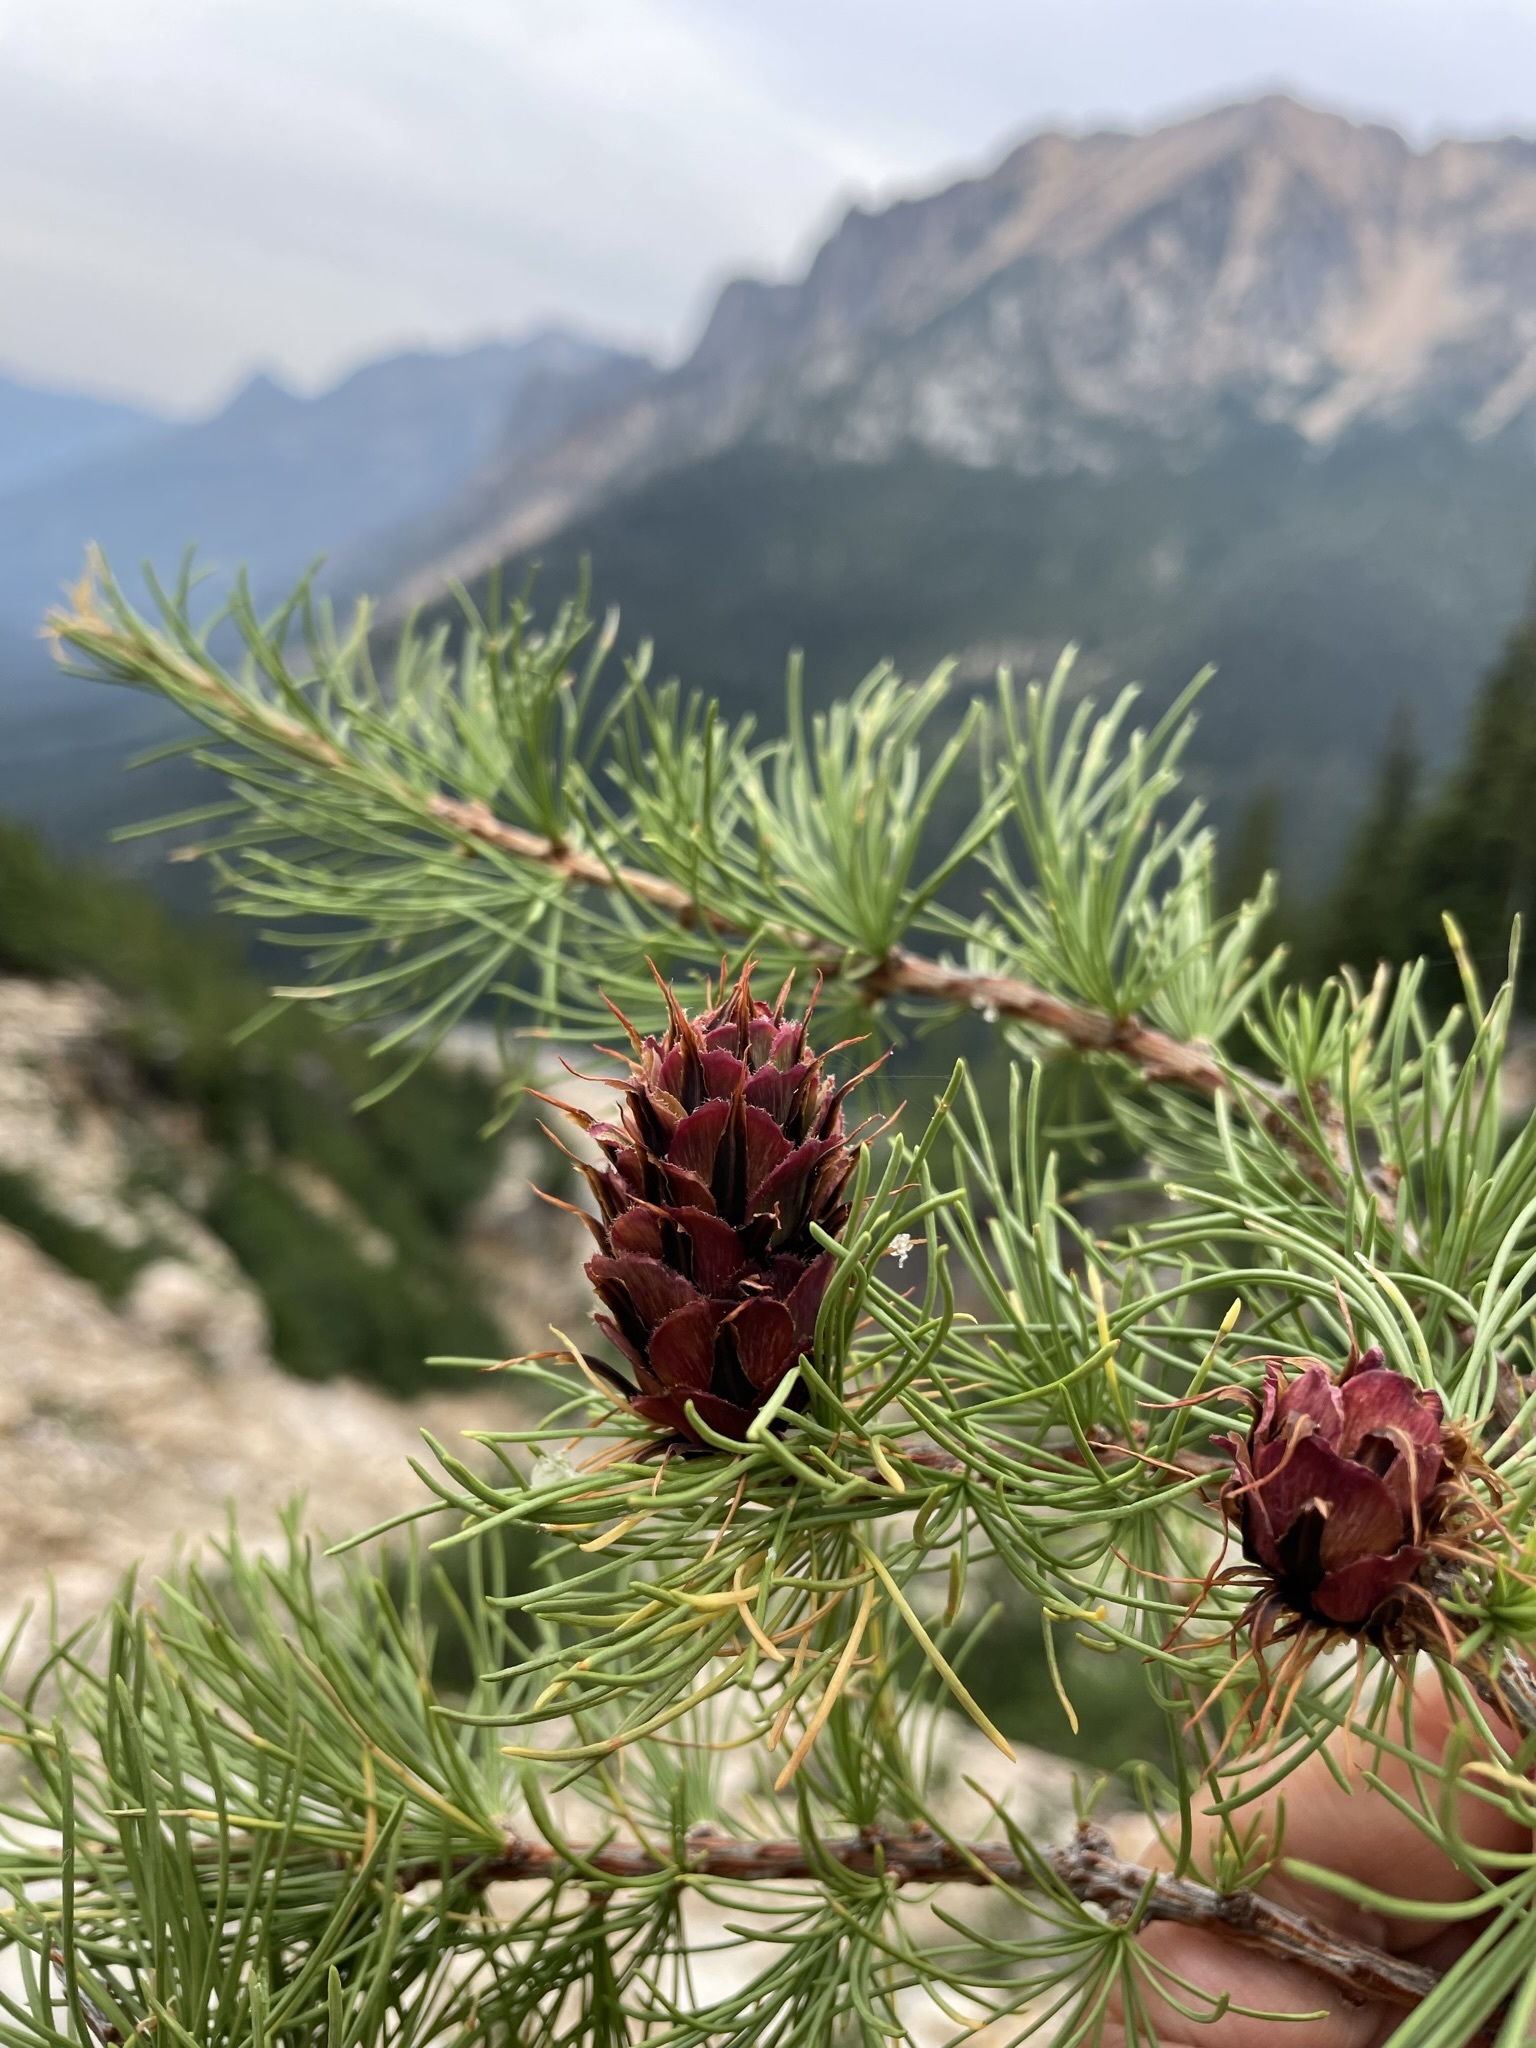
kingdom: Plantae
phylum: Tracheophyta
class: Pinopsida
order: Pinales
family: Pinaceae
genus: Larix
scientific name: Larix lyallii
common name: Alpine larch
